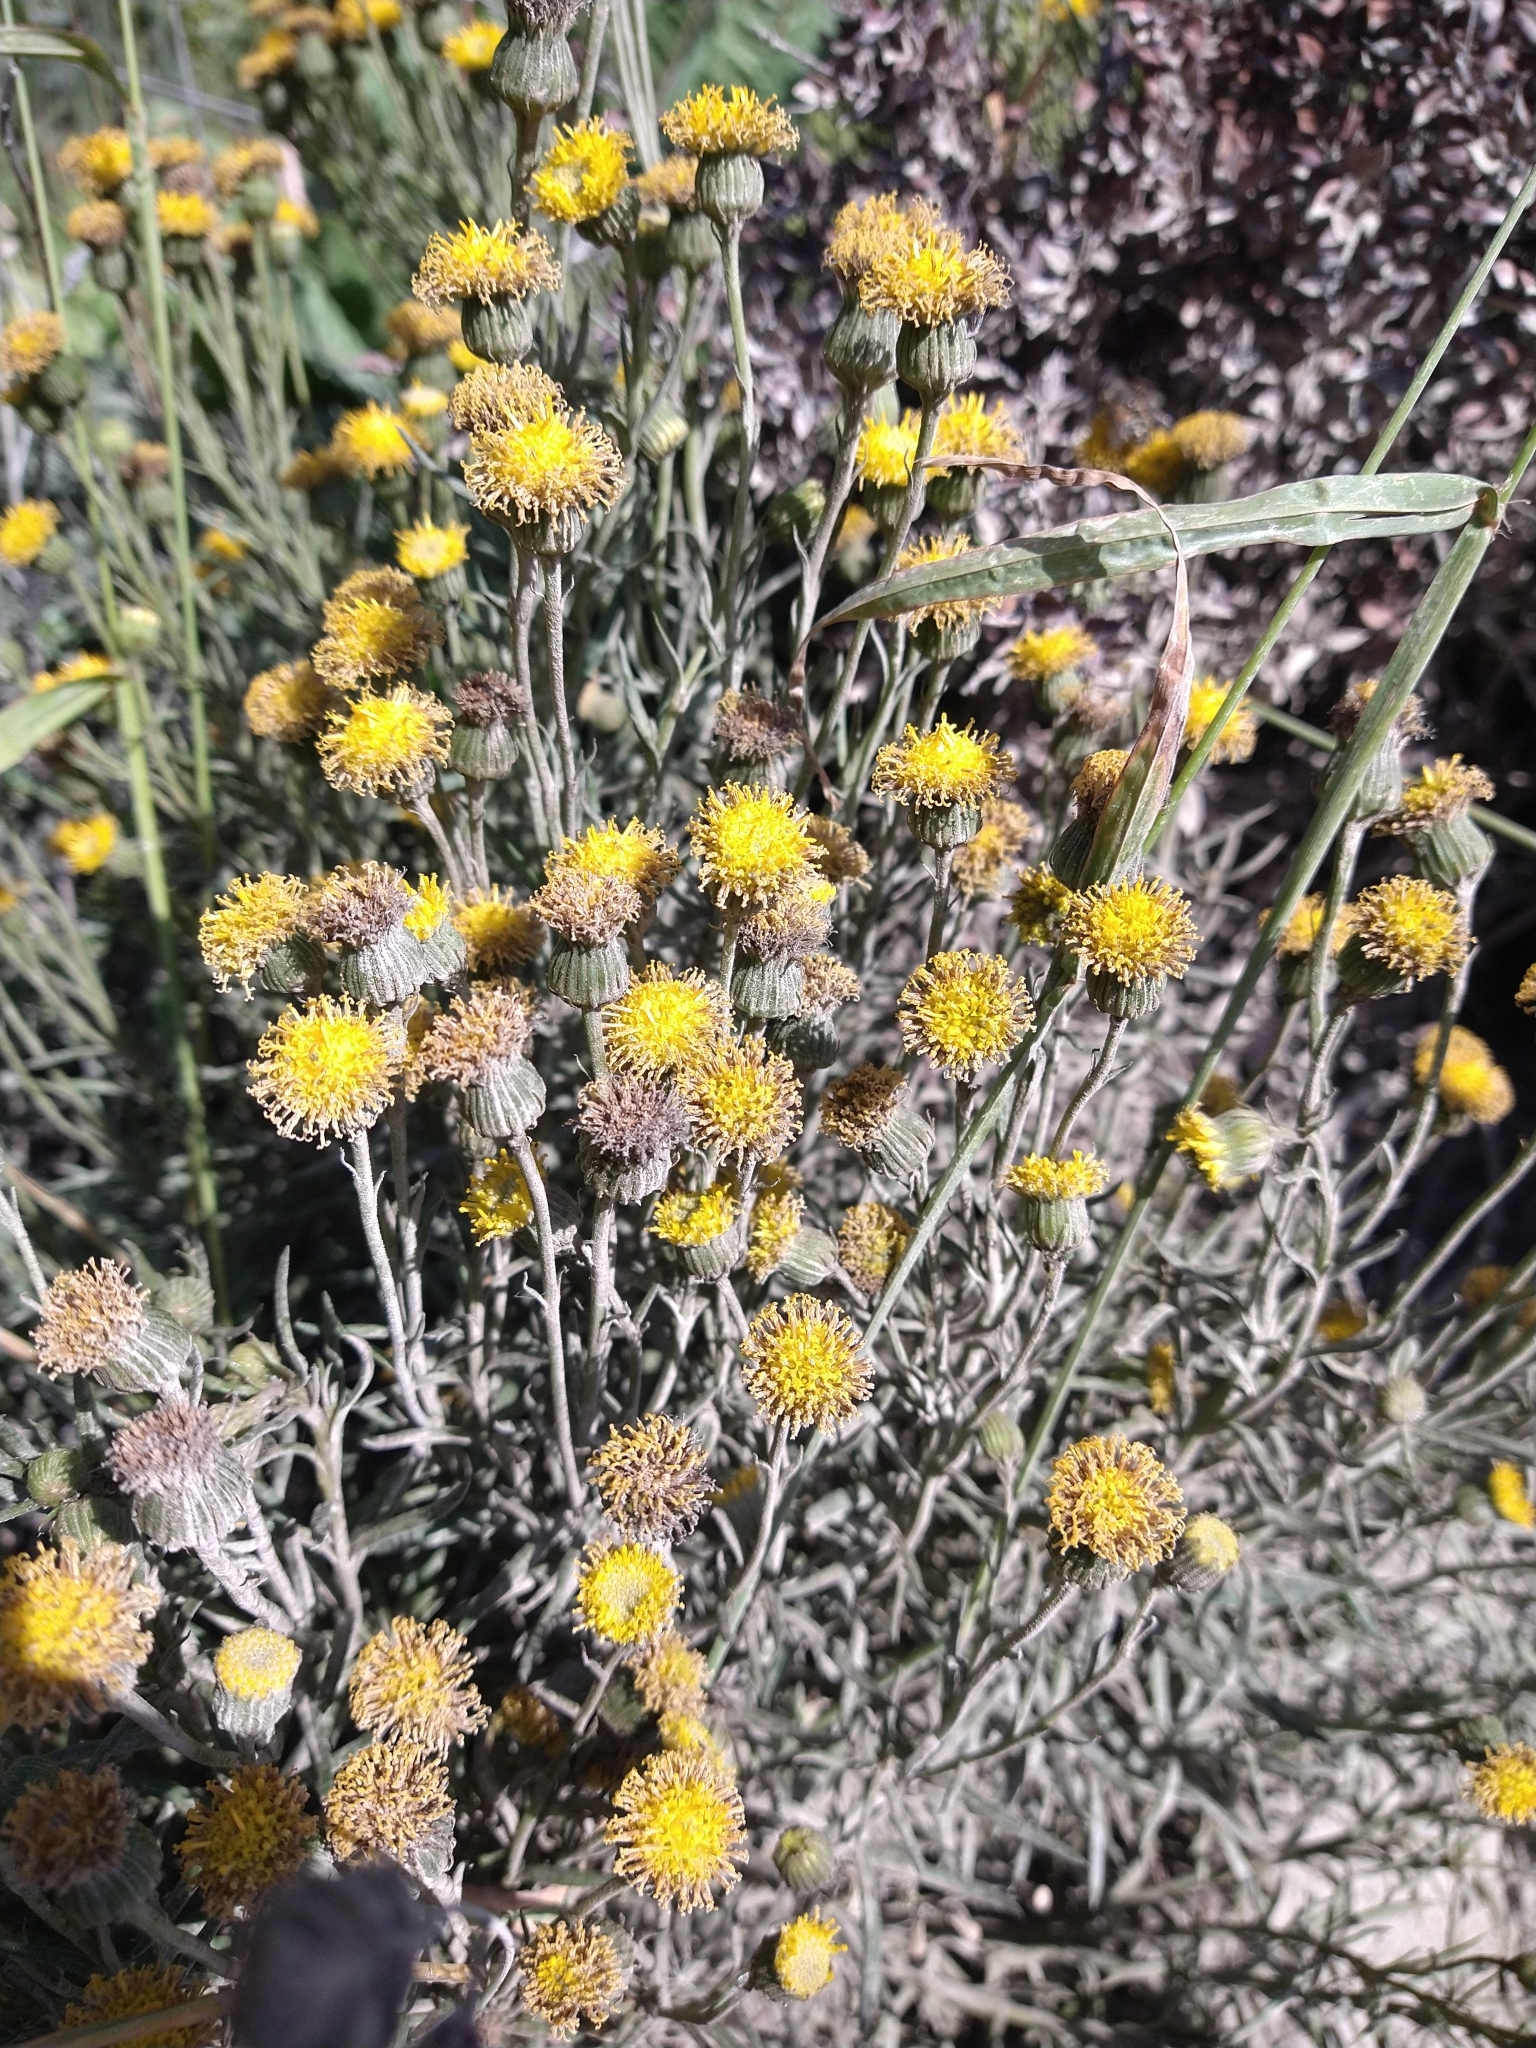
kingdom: Plantae
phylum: Tracheophyta
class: Magnoliopsida
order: Asterales
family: Asteraceae
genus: Senecio
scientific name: Senecio filaginoides
